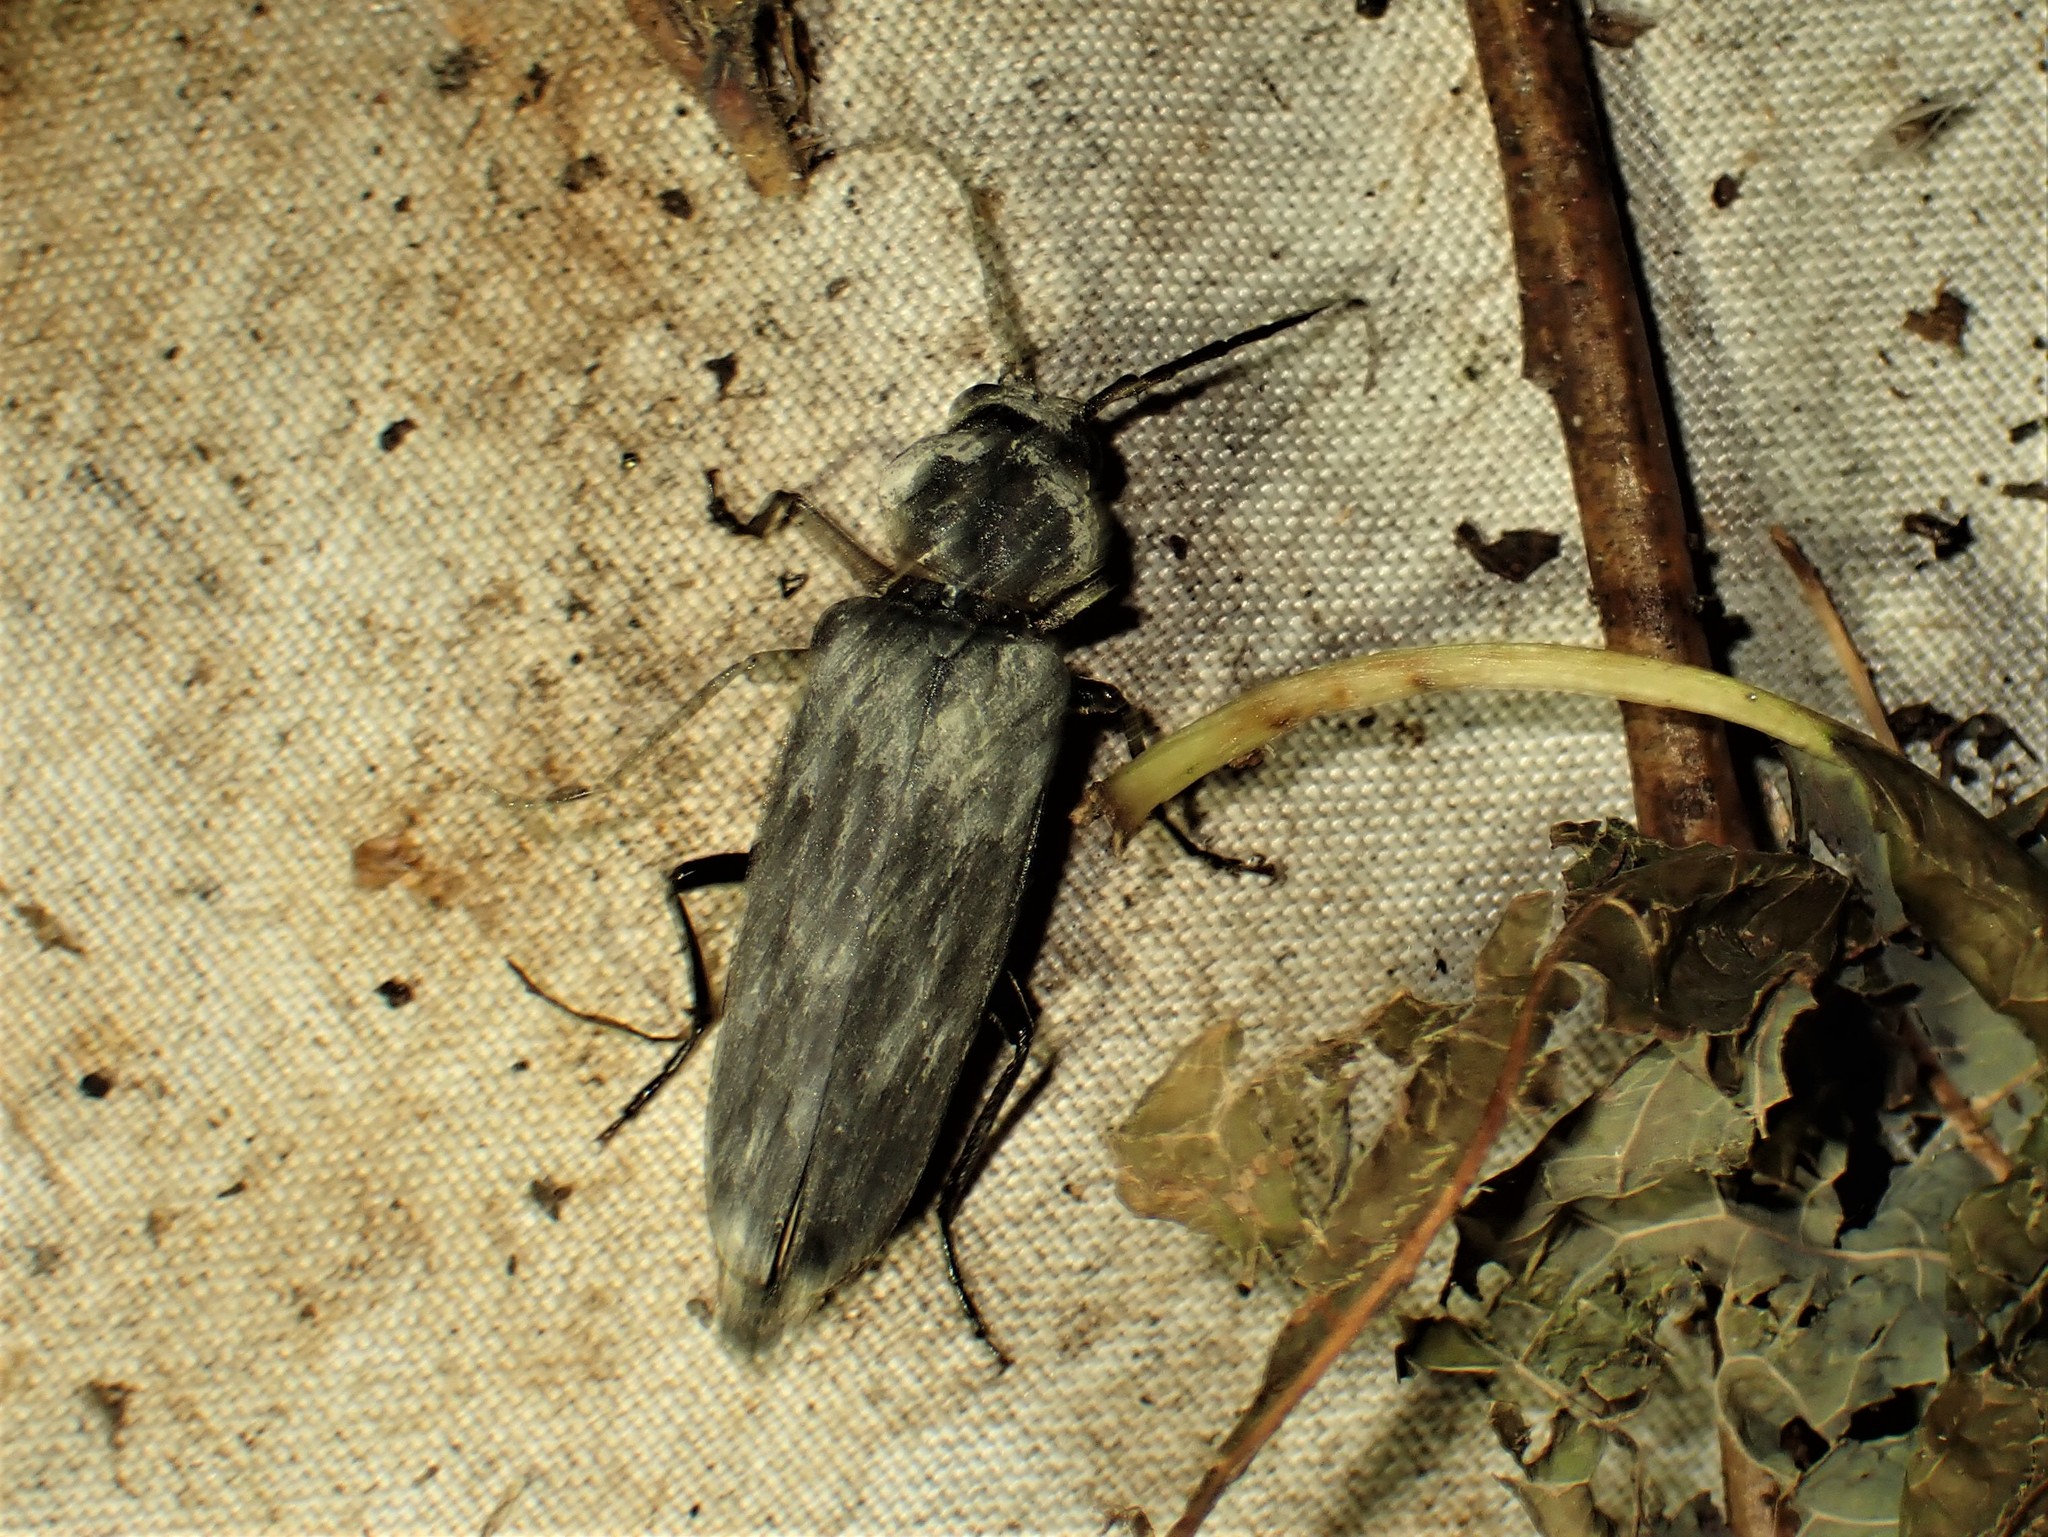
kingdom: Animalia
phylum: Arthropoda
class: Insecta
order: Coleoptera
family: Cerambycidae
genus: Arhopalus
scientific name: Arhopalus foveicollis
